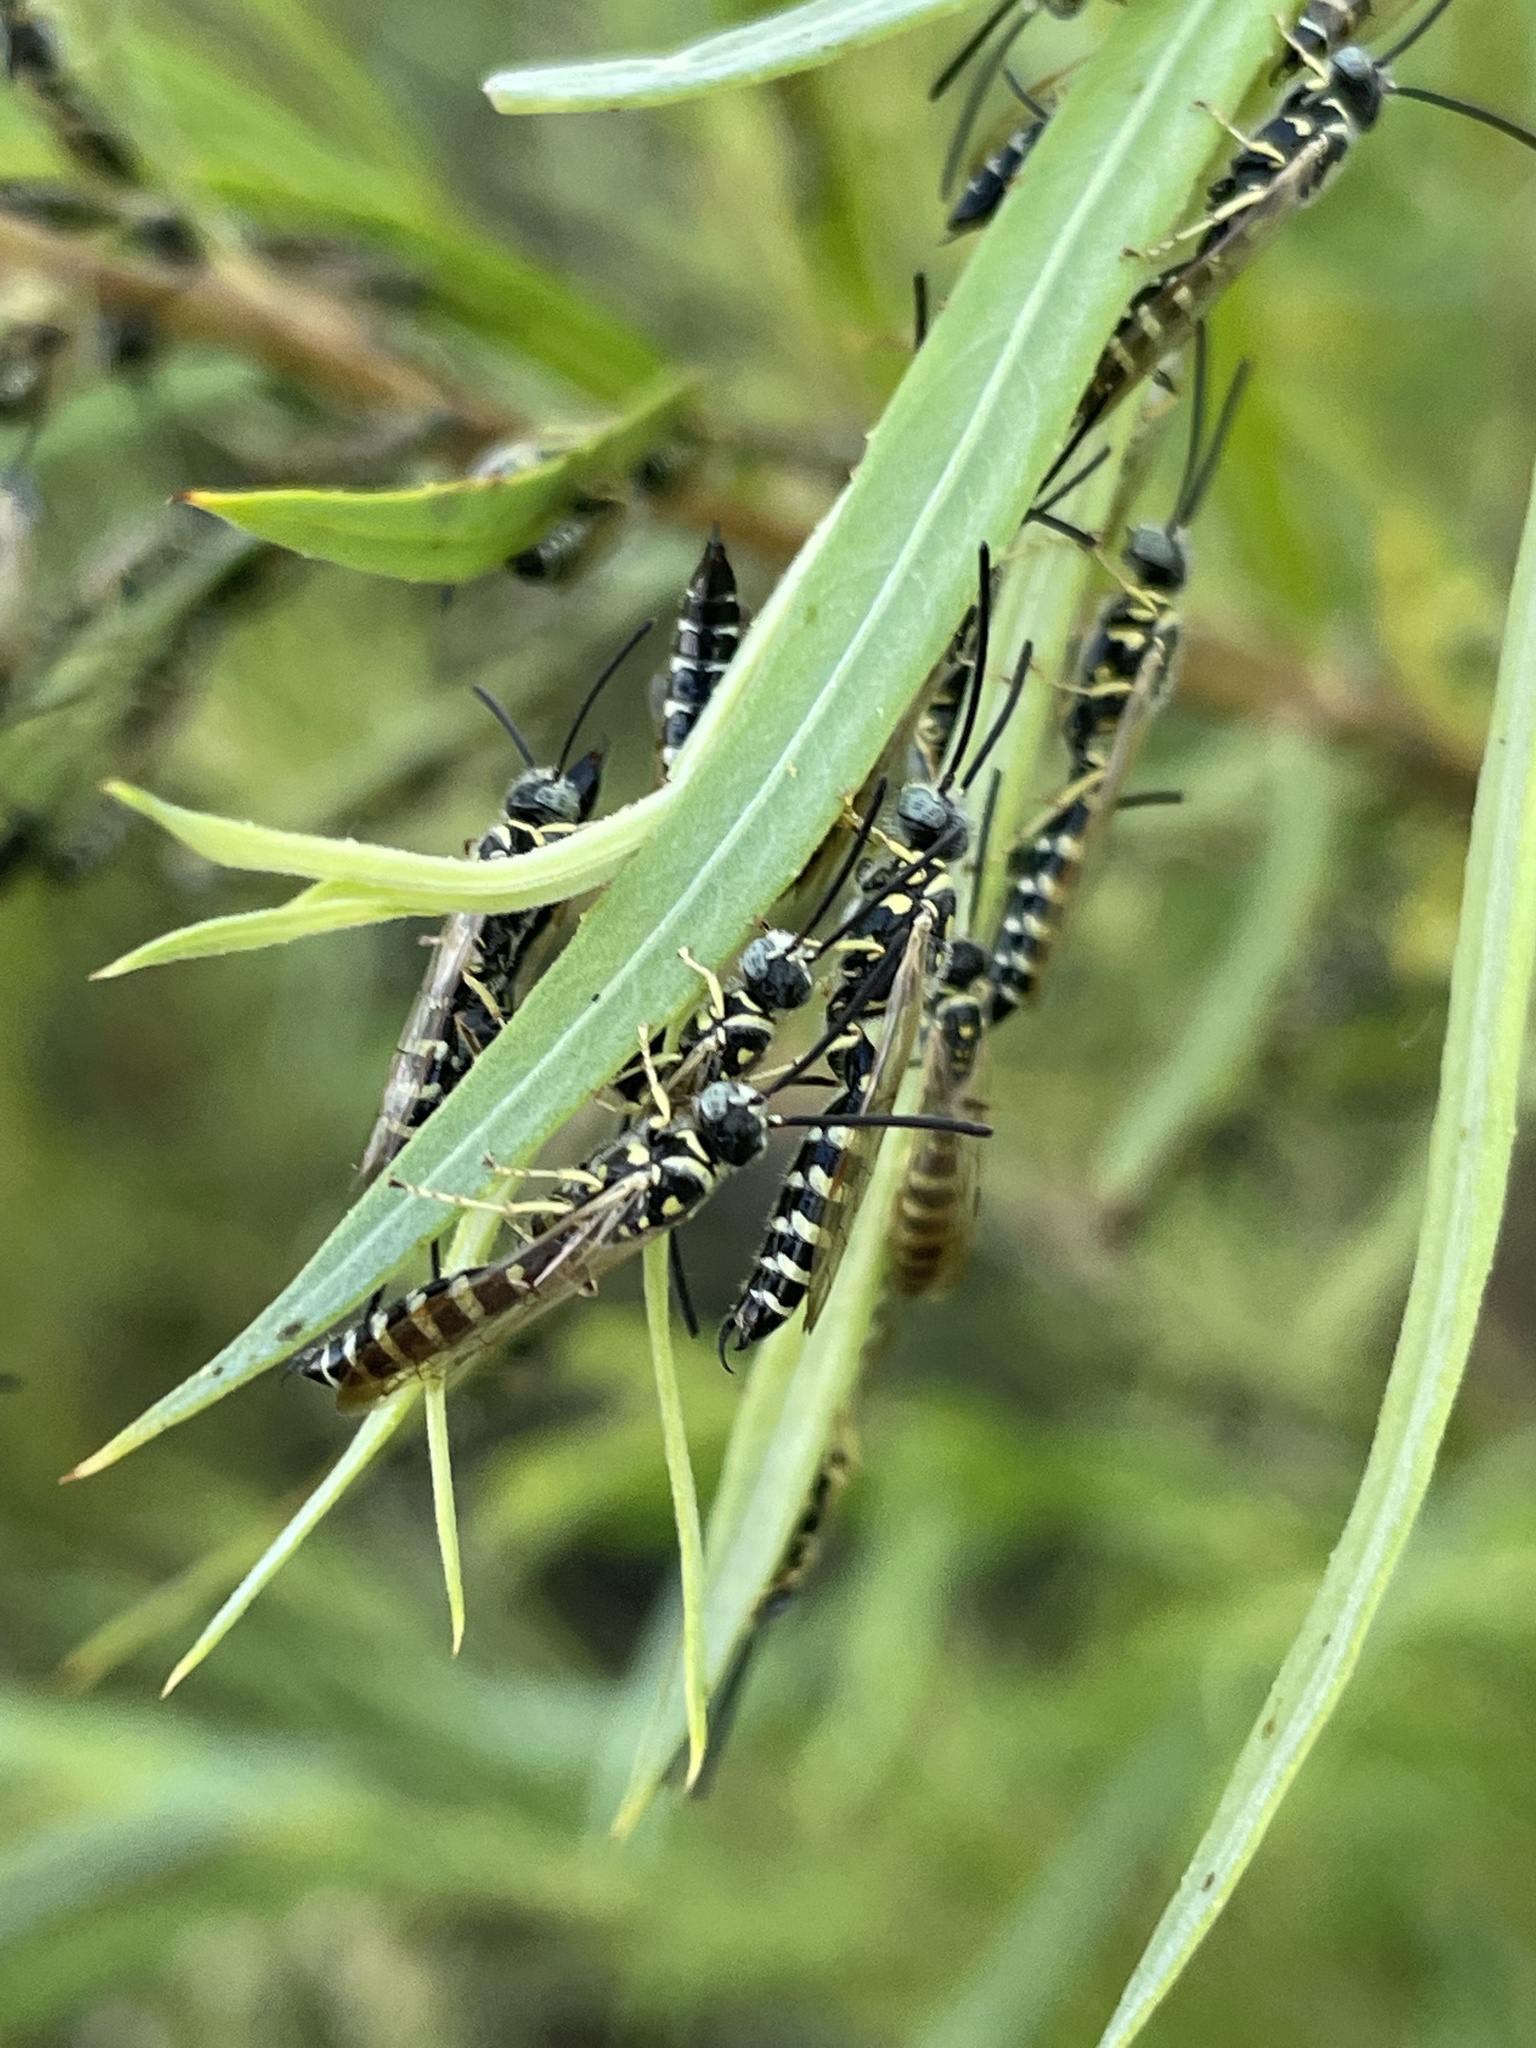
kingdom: Animalia
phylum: Arthropoda
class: Insecta
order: Hymenoptera
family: Tiphiidae
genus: Myzinum
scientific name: Myzinum
